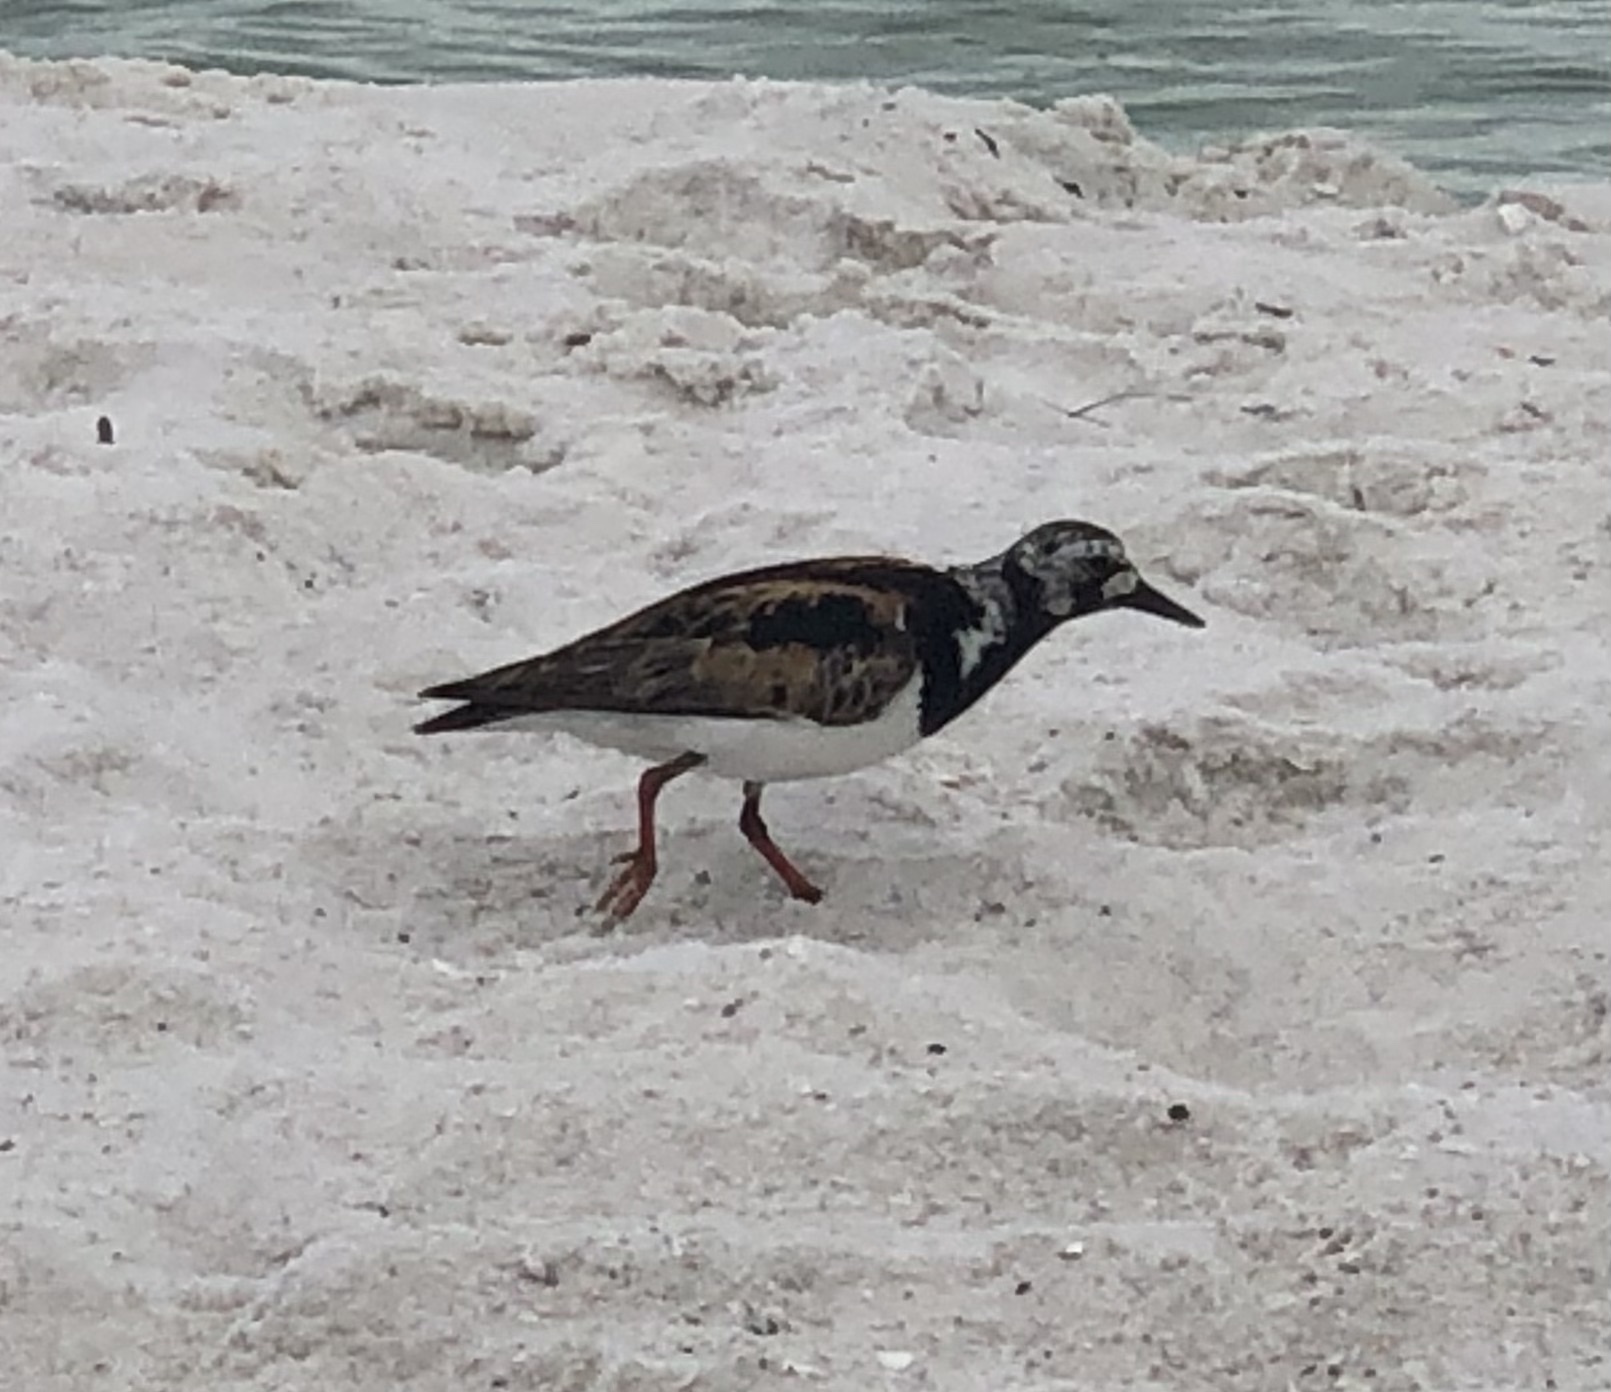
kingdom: Animalia
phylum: Chordata
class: Aves
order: Charadriiformes
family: Scolopacidae
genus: Arenaria
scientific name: Arenaria interpres
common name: Ruddy turnstone
